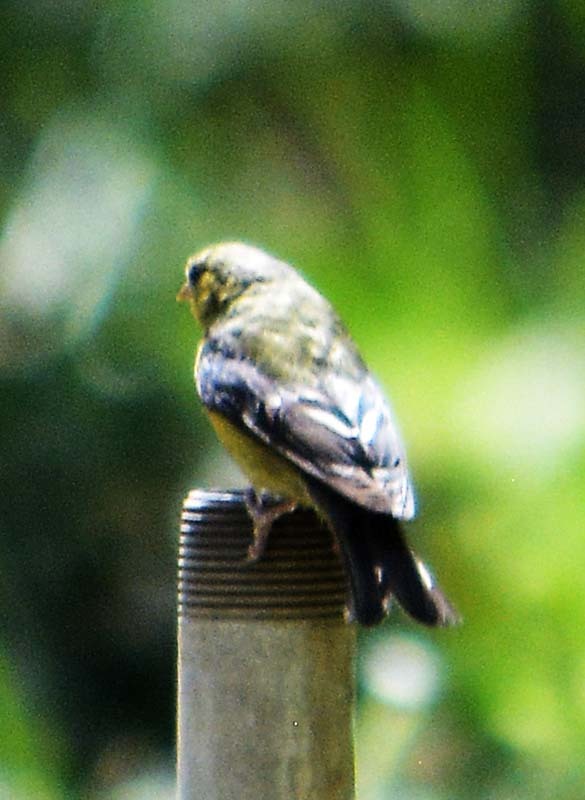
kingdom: Animalia
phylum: Chordata
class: Aves
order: Passeriformes
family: Fringillidae
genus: Spinus
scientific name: Spinus psaltria
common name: Lesser goldfinch
